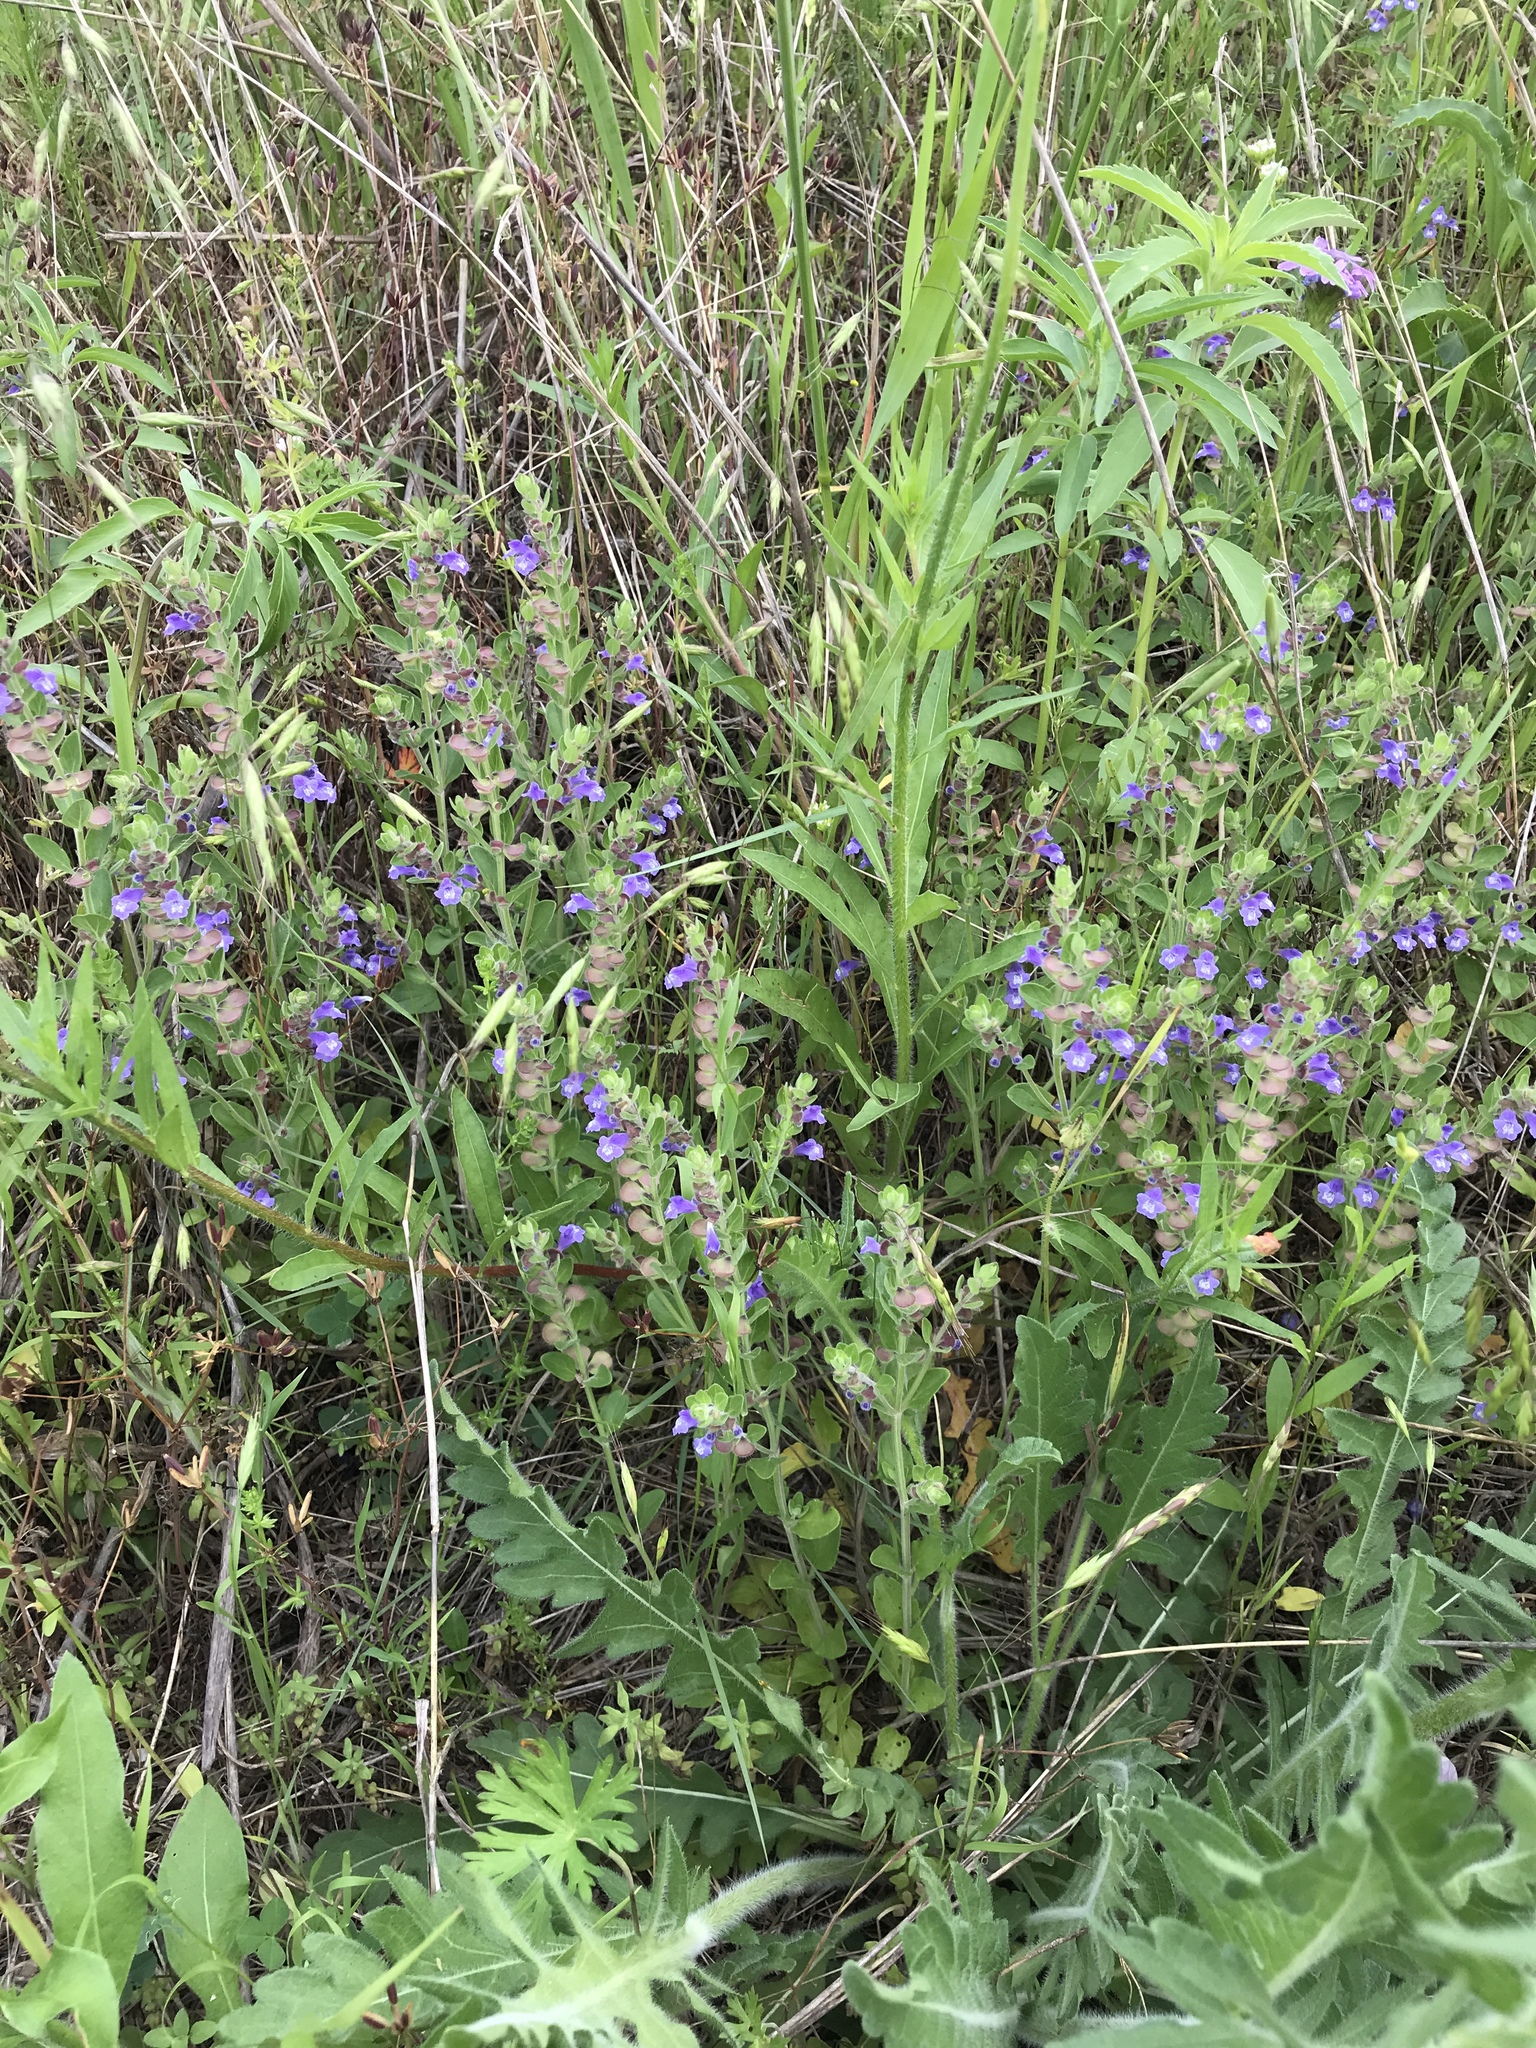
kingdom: Plantae
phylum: Tracheophyta
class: Magnoliopsida
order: Lamiales
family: Lamiaceae
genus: Scutellaria
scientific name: Scutellaria drummondii
